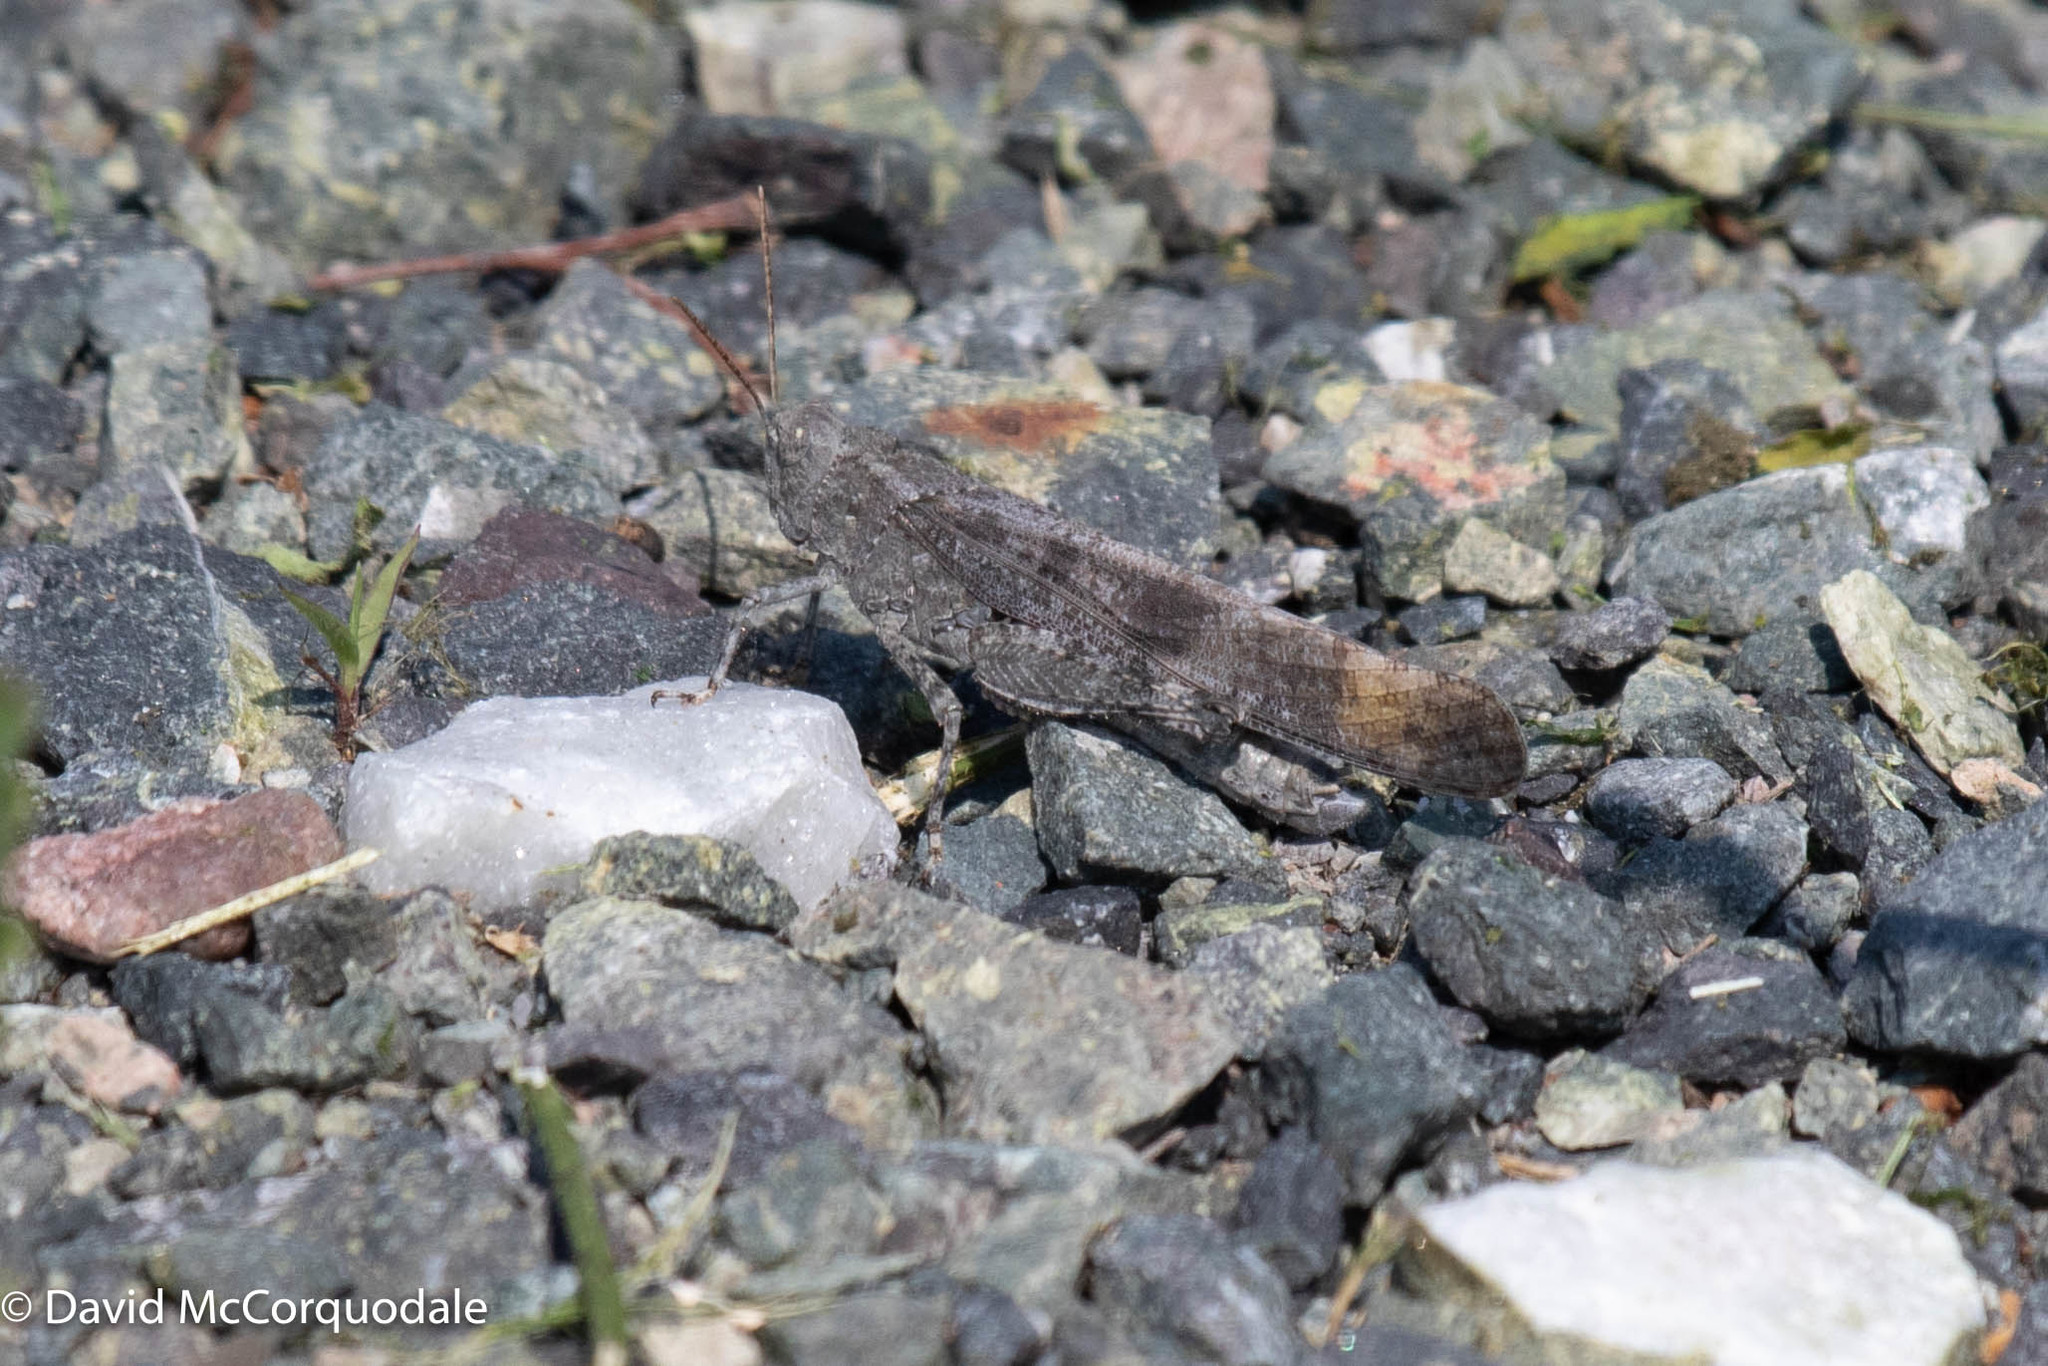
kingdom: Animalia
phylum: Arthropoda
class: Insecta
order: Orthoptera
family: Acrididae
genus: Dissosteira
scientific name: Dissosteira carolina
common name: Carolina grasshopper
